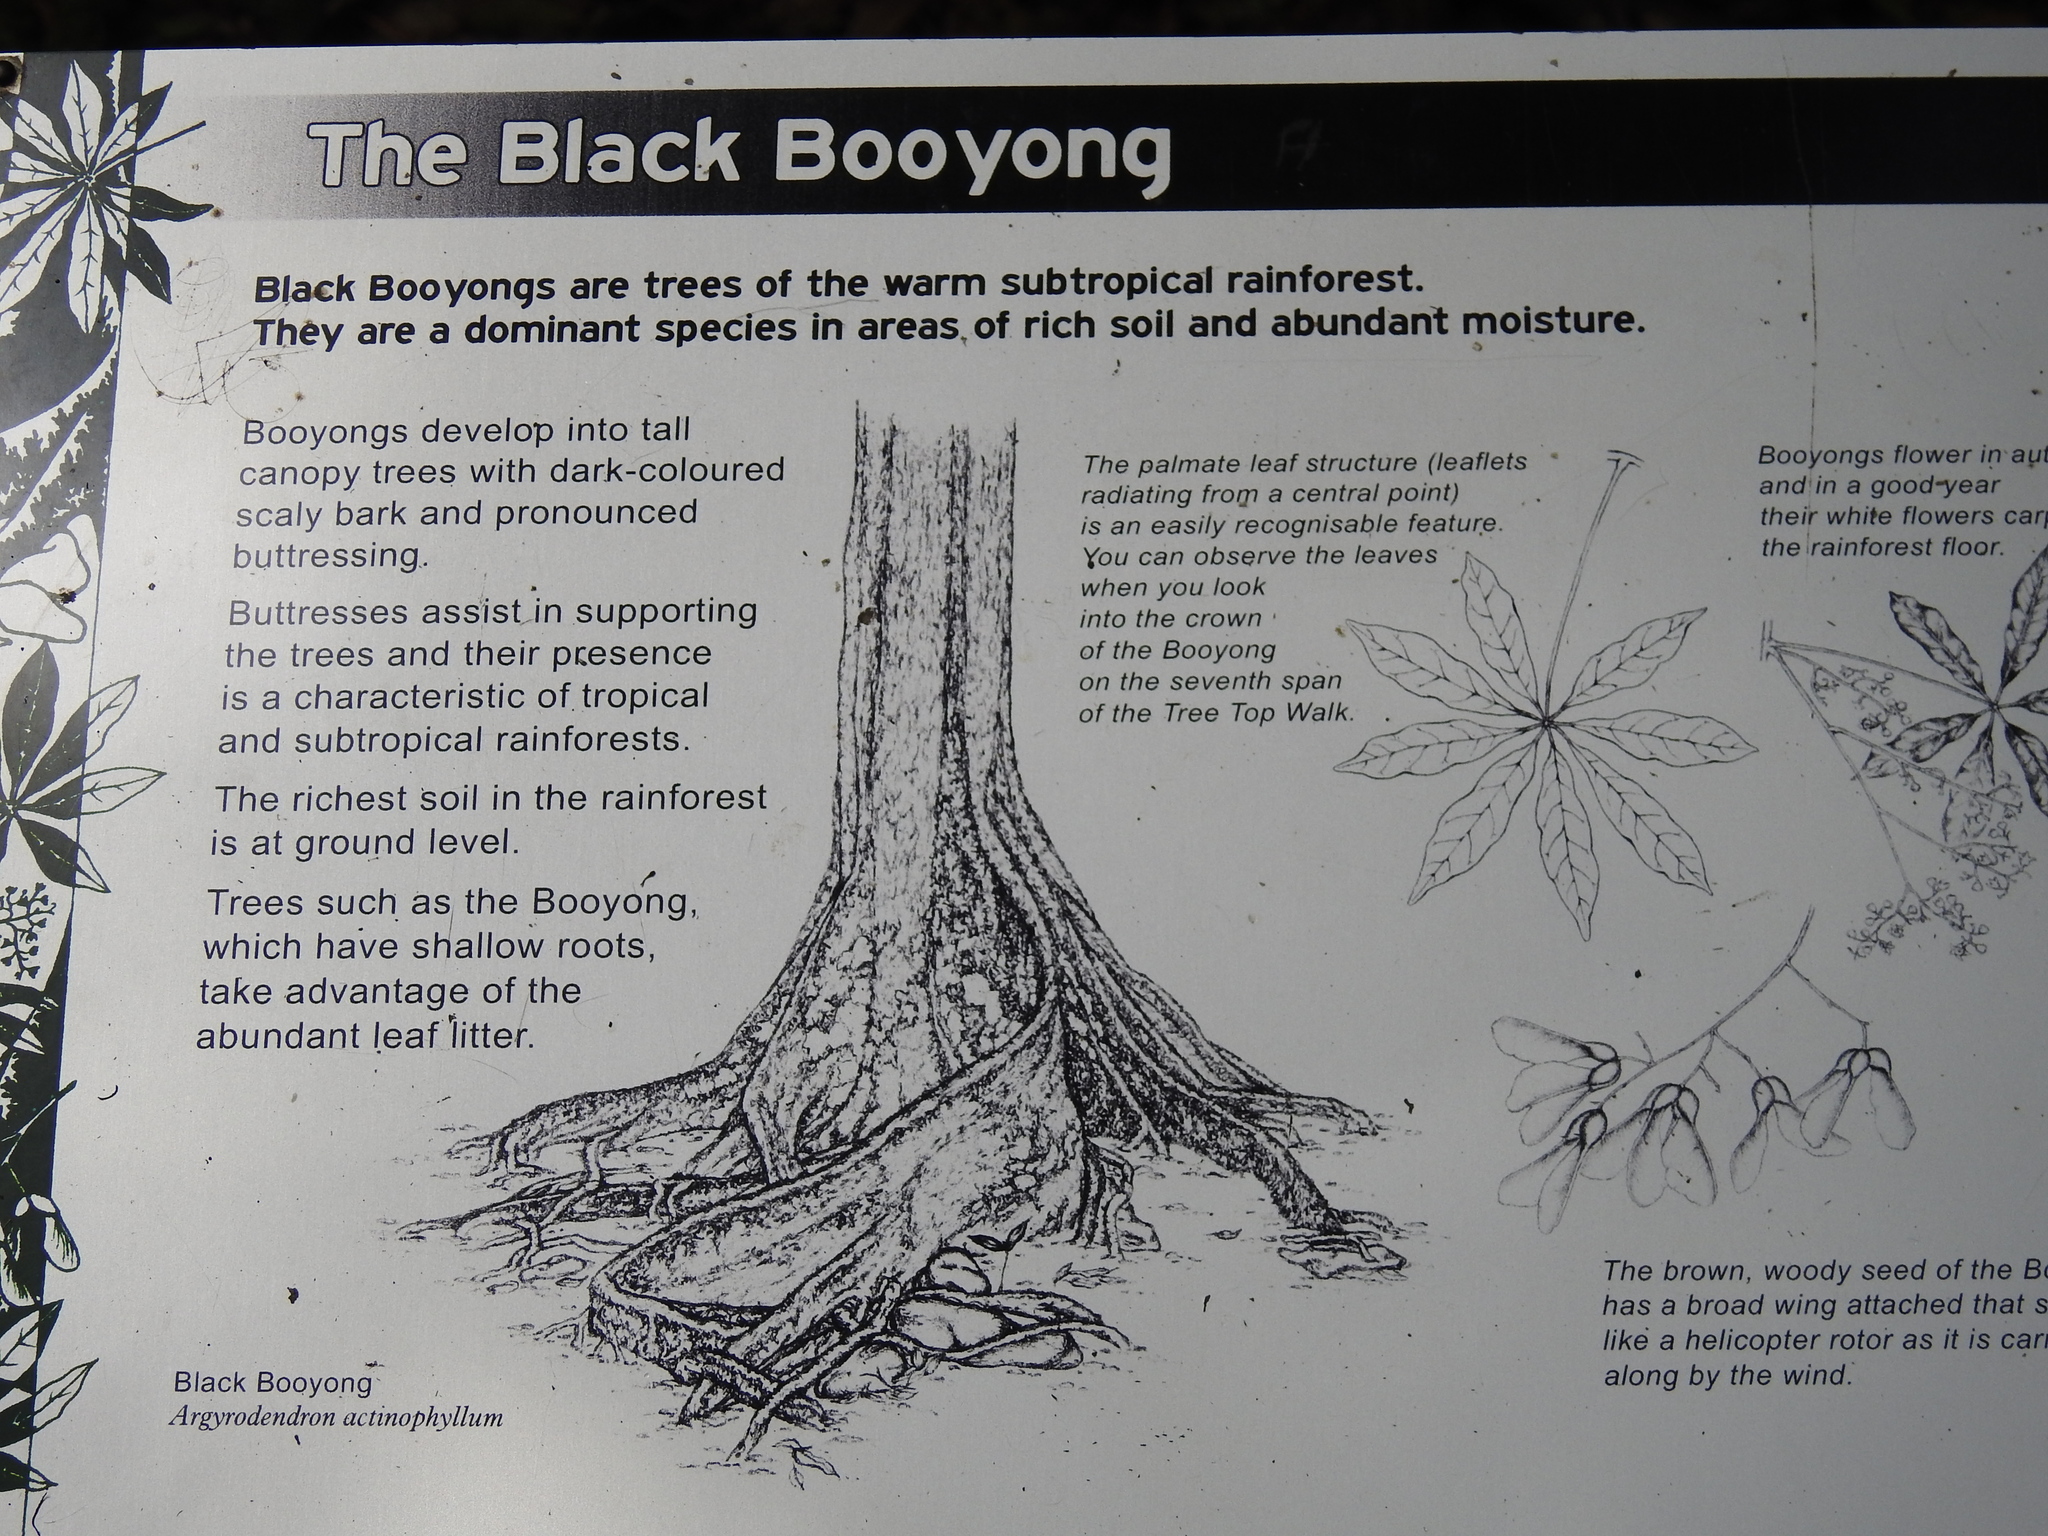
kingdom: Plantae
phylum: Tracheophyta
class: Magnoliopsida
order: Malvales
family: Malvaceae
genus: Argyrodendron
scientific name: Argyrodendron actinophyllum
